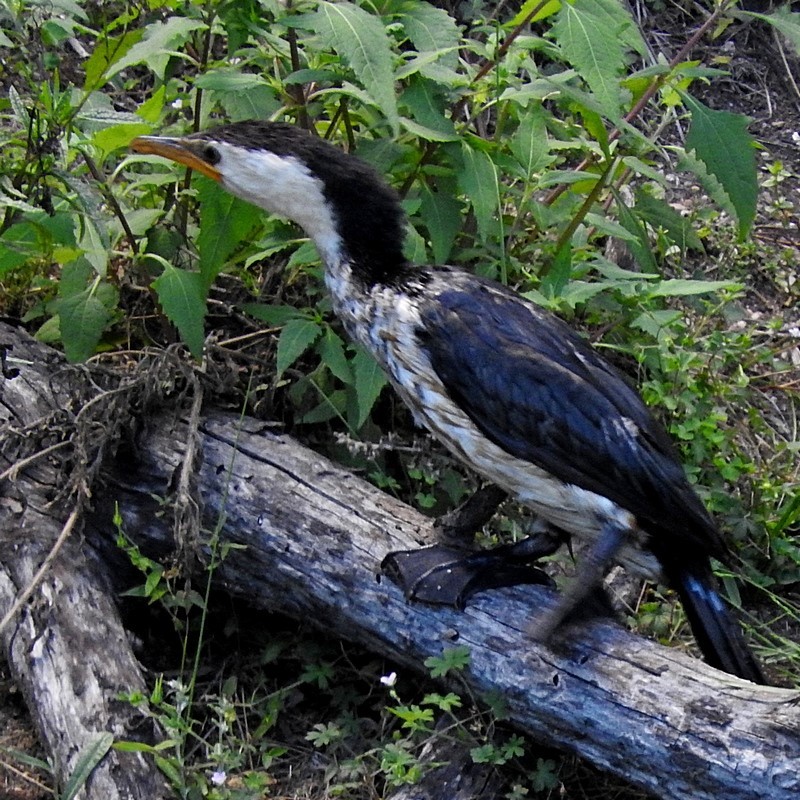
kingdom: Animalia
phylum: Chordata
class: Aves
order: Suliformes
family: Phalacrocoracidae
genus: Microcarbo
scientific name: Microcarbo melanoleucos
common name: Little pied cormorant
